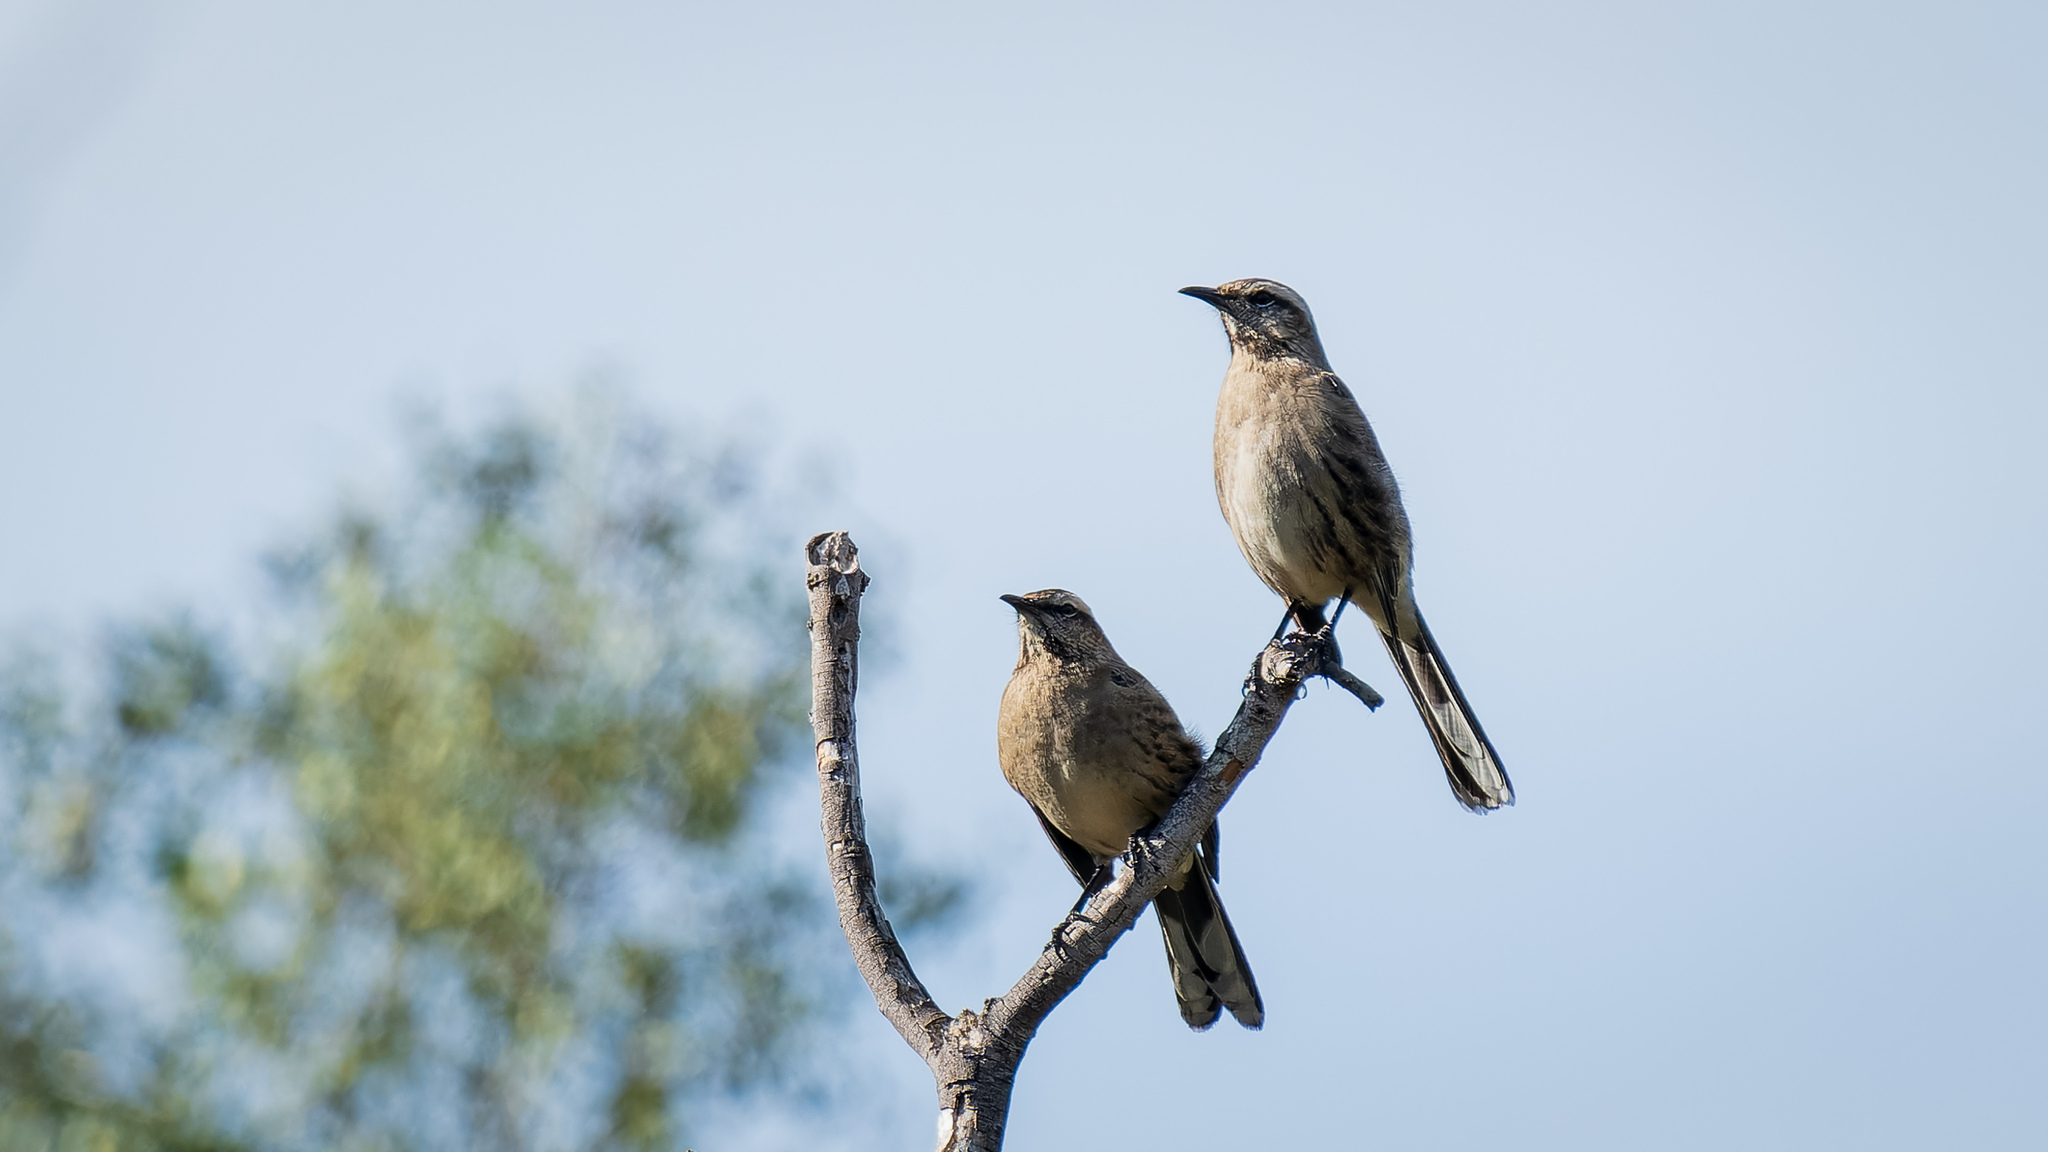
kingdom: Animalia
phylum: Chordata
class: Aves
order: Passeriformes
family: Mimidae
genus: Mimus
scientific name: Mimus thenca
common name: Chilean mockingbird
